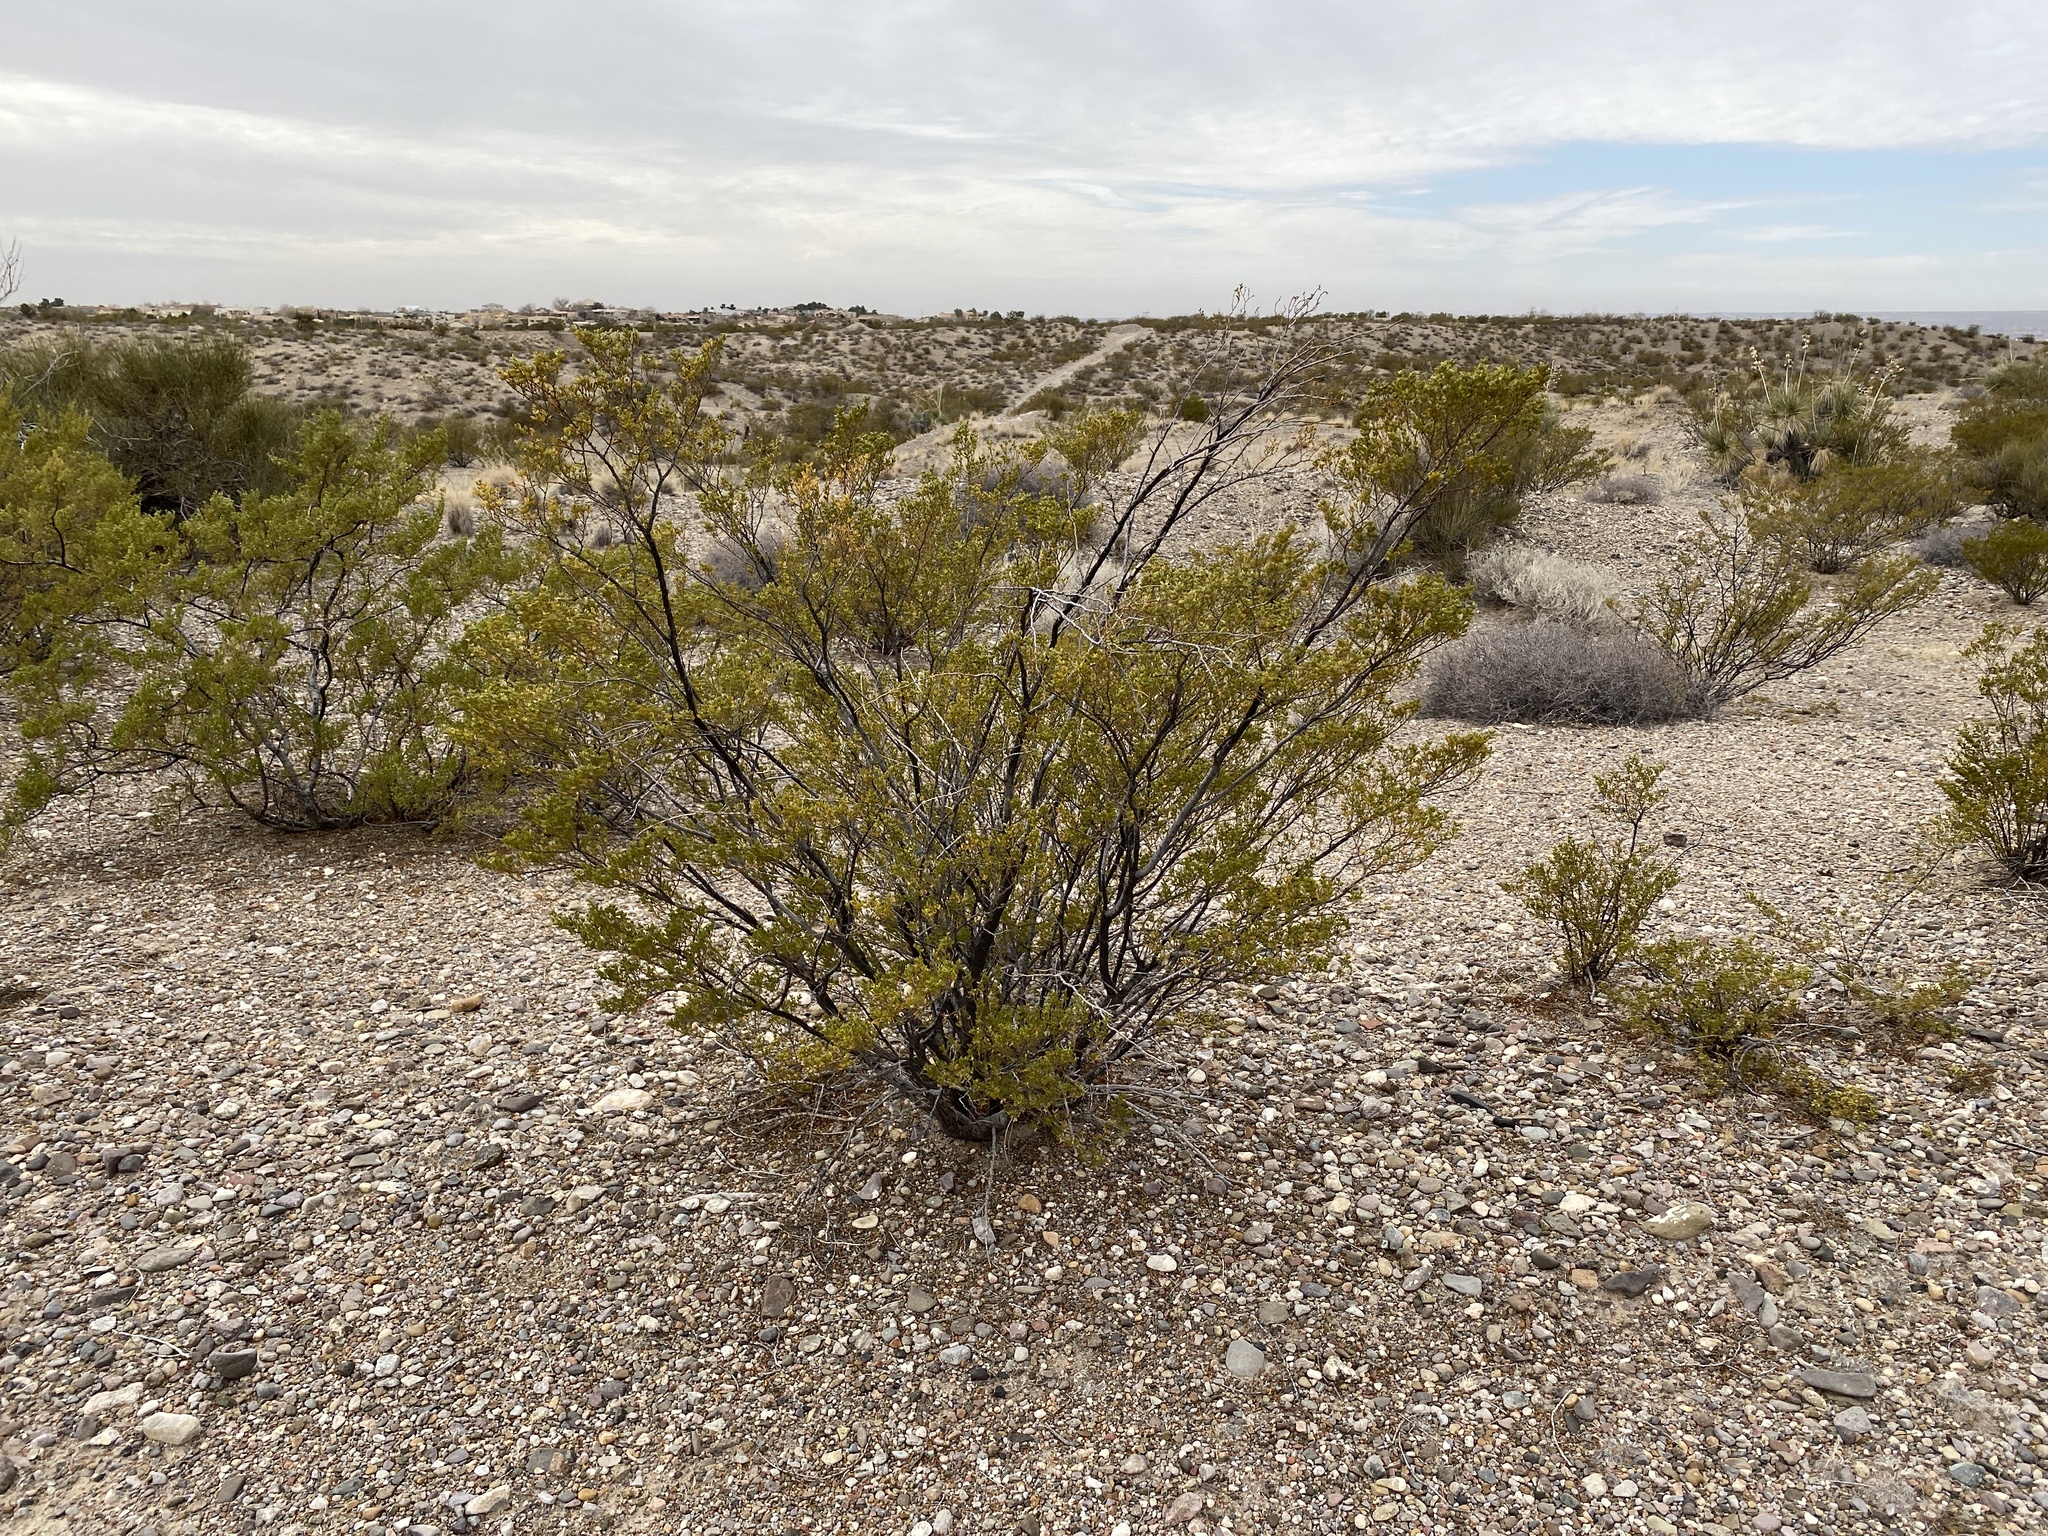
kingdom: Plantae
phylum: Tracheophyta
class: Magnoliopsida
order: Zygophyllales
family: Zygophyllaceae
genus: Larrea
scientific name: Larrea tridentata
